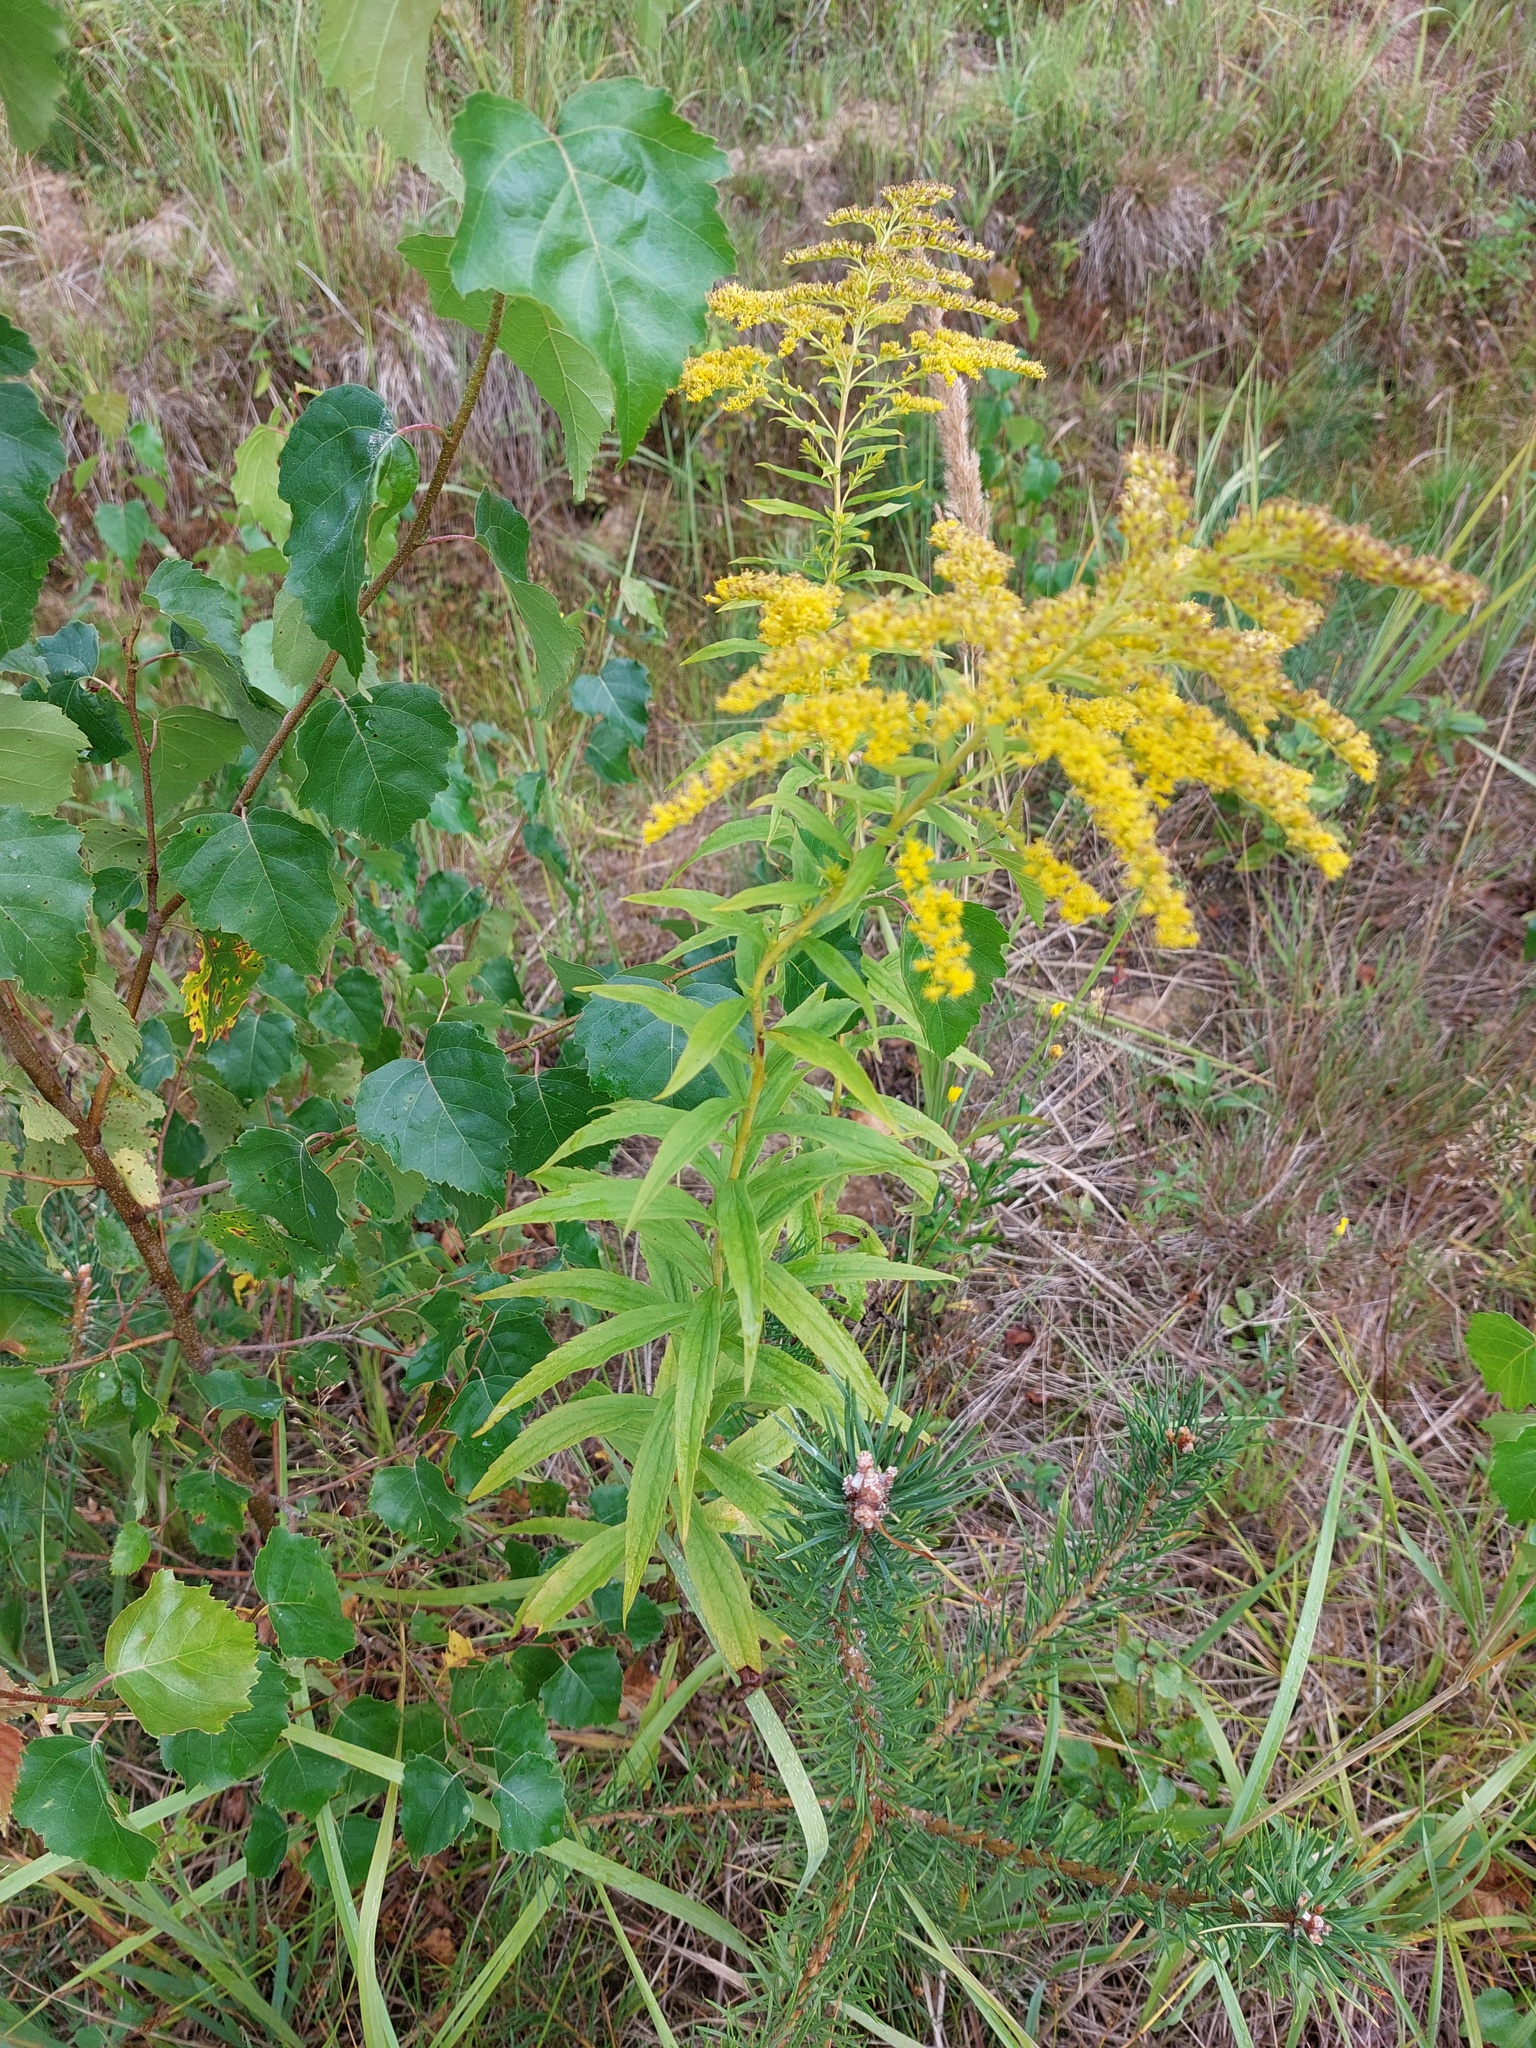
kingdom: Plantae
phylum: Tracheophyta
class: Magnoliopsida
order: Asterales
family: Asteraceae
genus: Solidago
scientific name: Solidago canadensis
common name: Canada goldenrod
